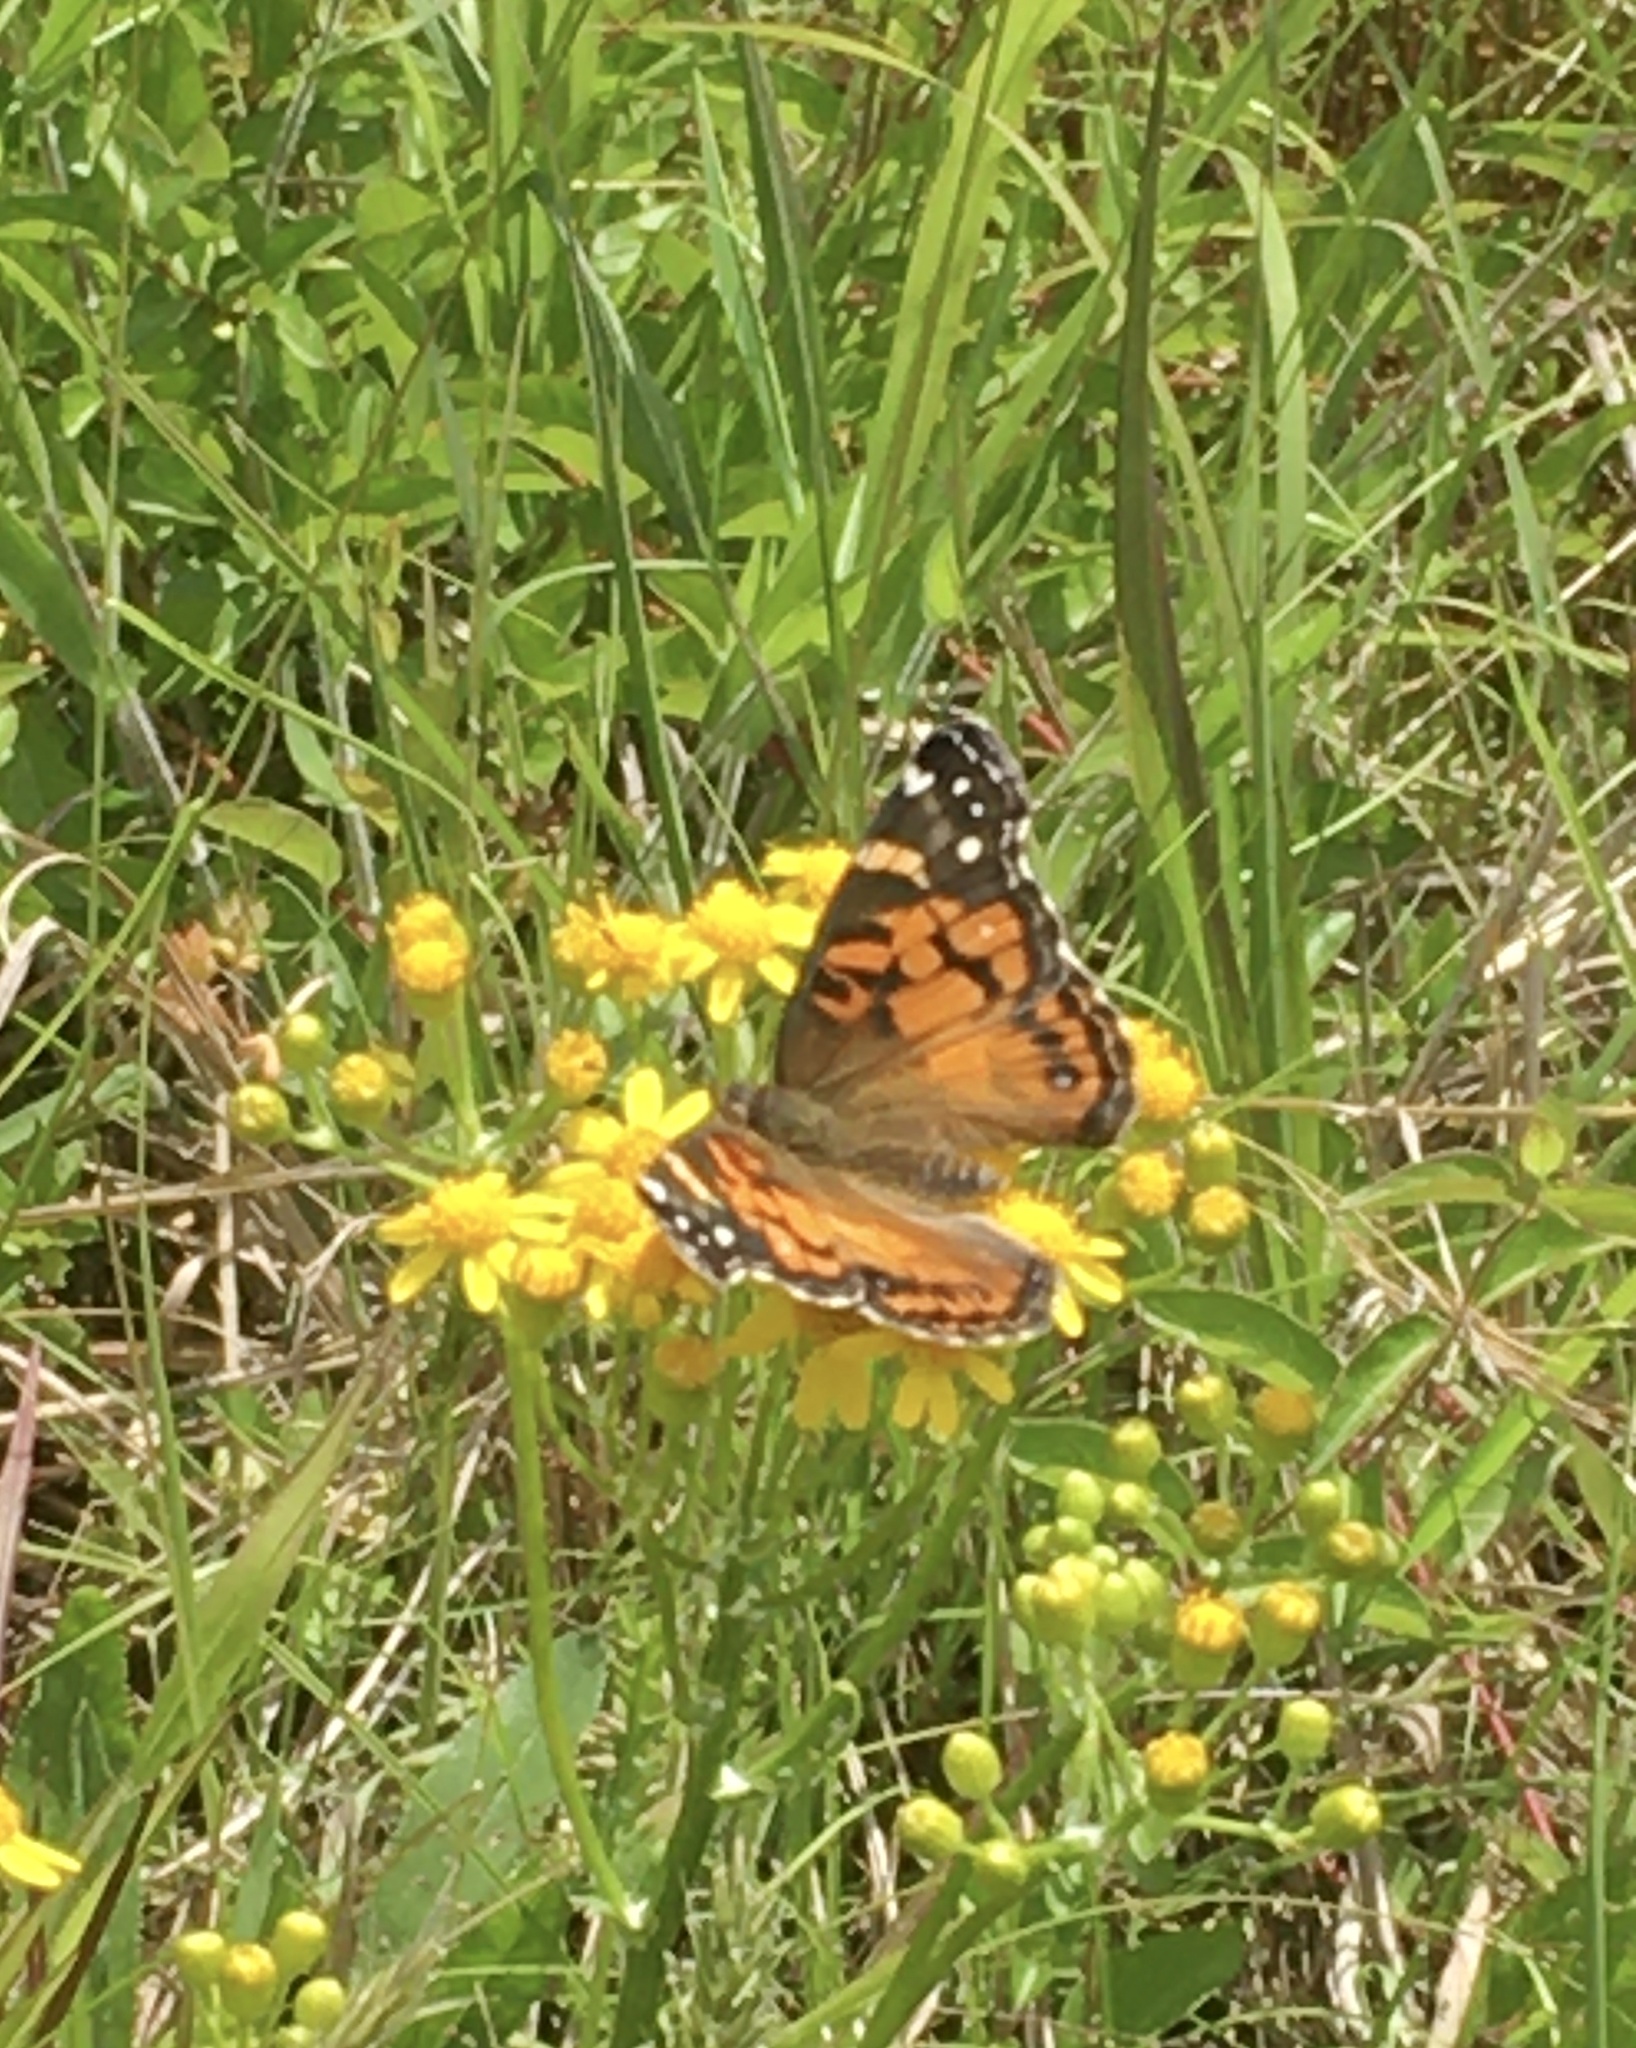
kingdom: Animalia
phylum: Arthropoda
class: Insecta
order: Lepidoptera
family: Nymphalidae
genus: Vanessa
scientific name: Vanessa virginiensis
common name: American lady
